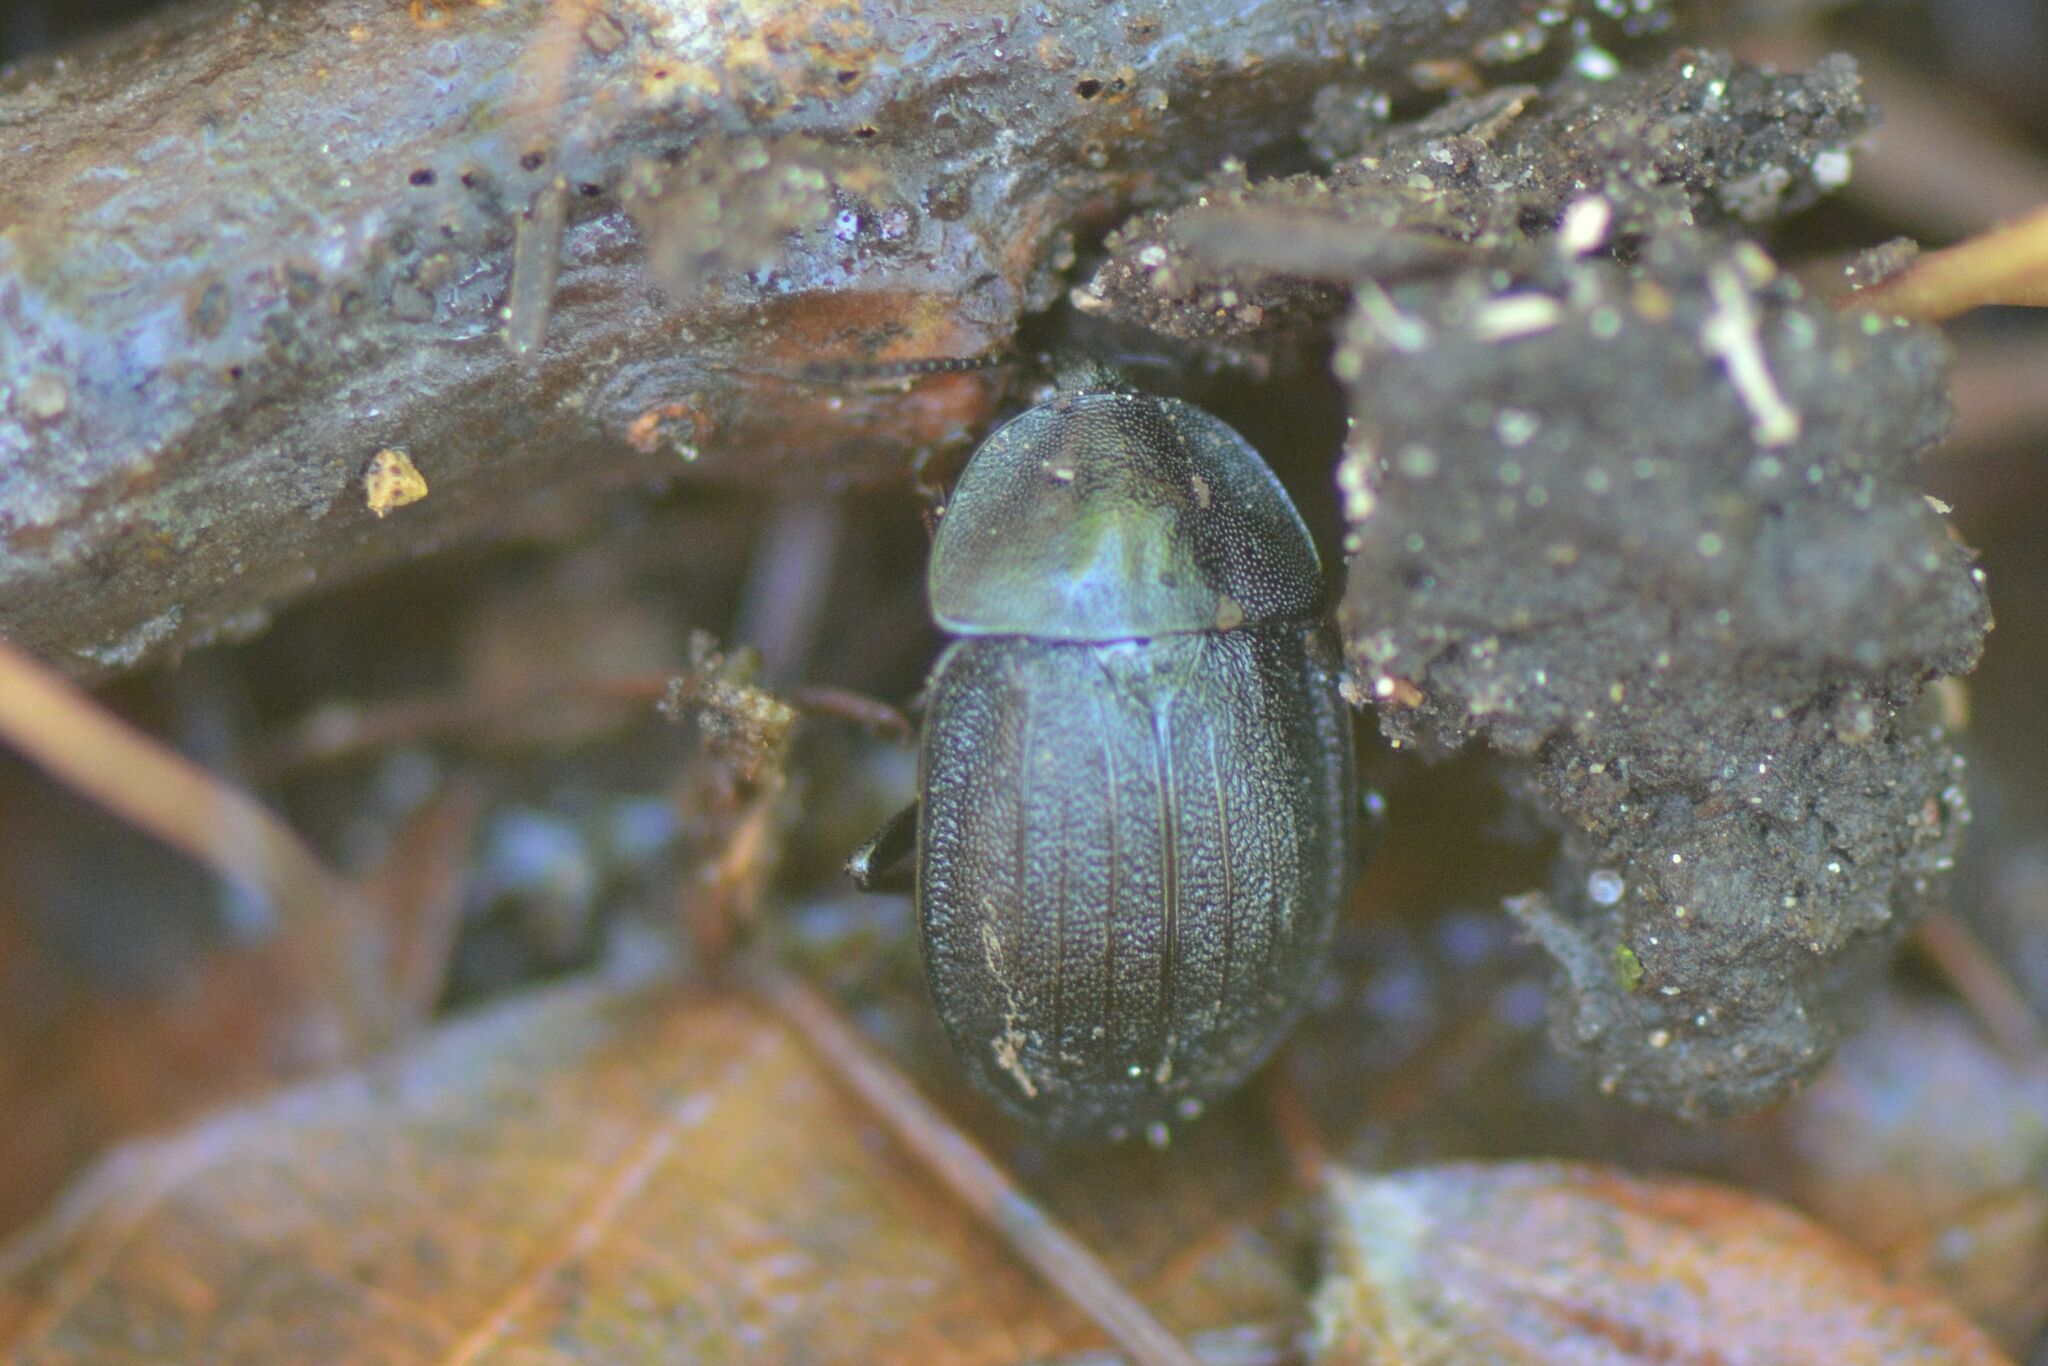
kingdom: Animalia
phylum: Arthropoda
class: Insecta
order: Coleoptera
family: Staphylinidae
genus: Silpha
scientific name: Silpha atrata
